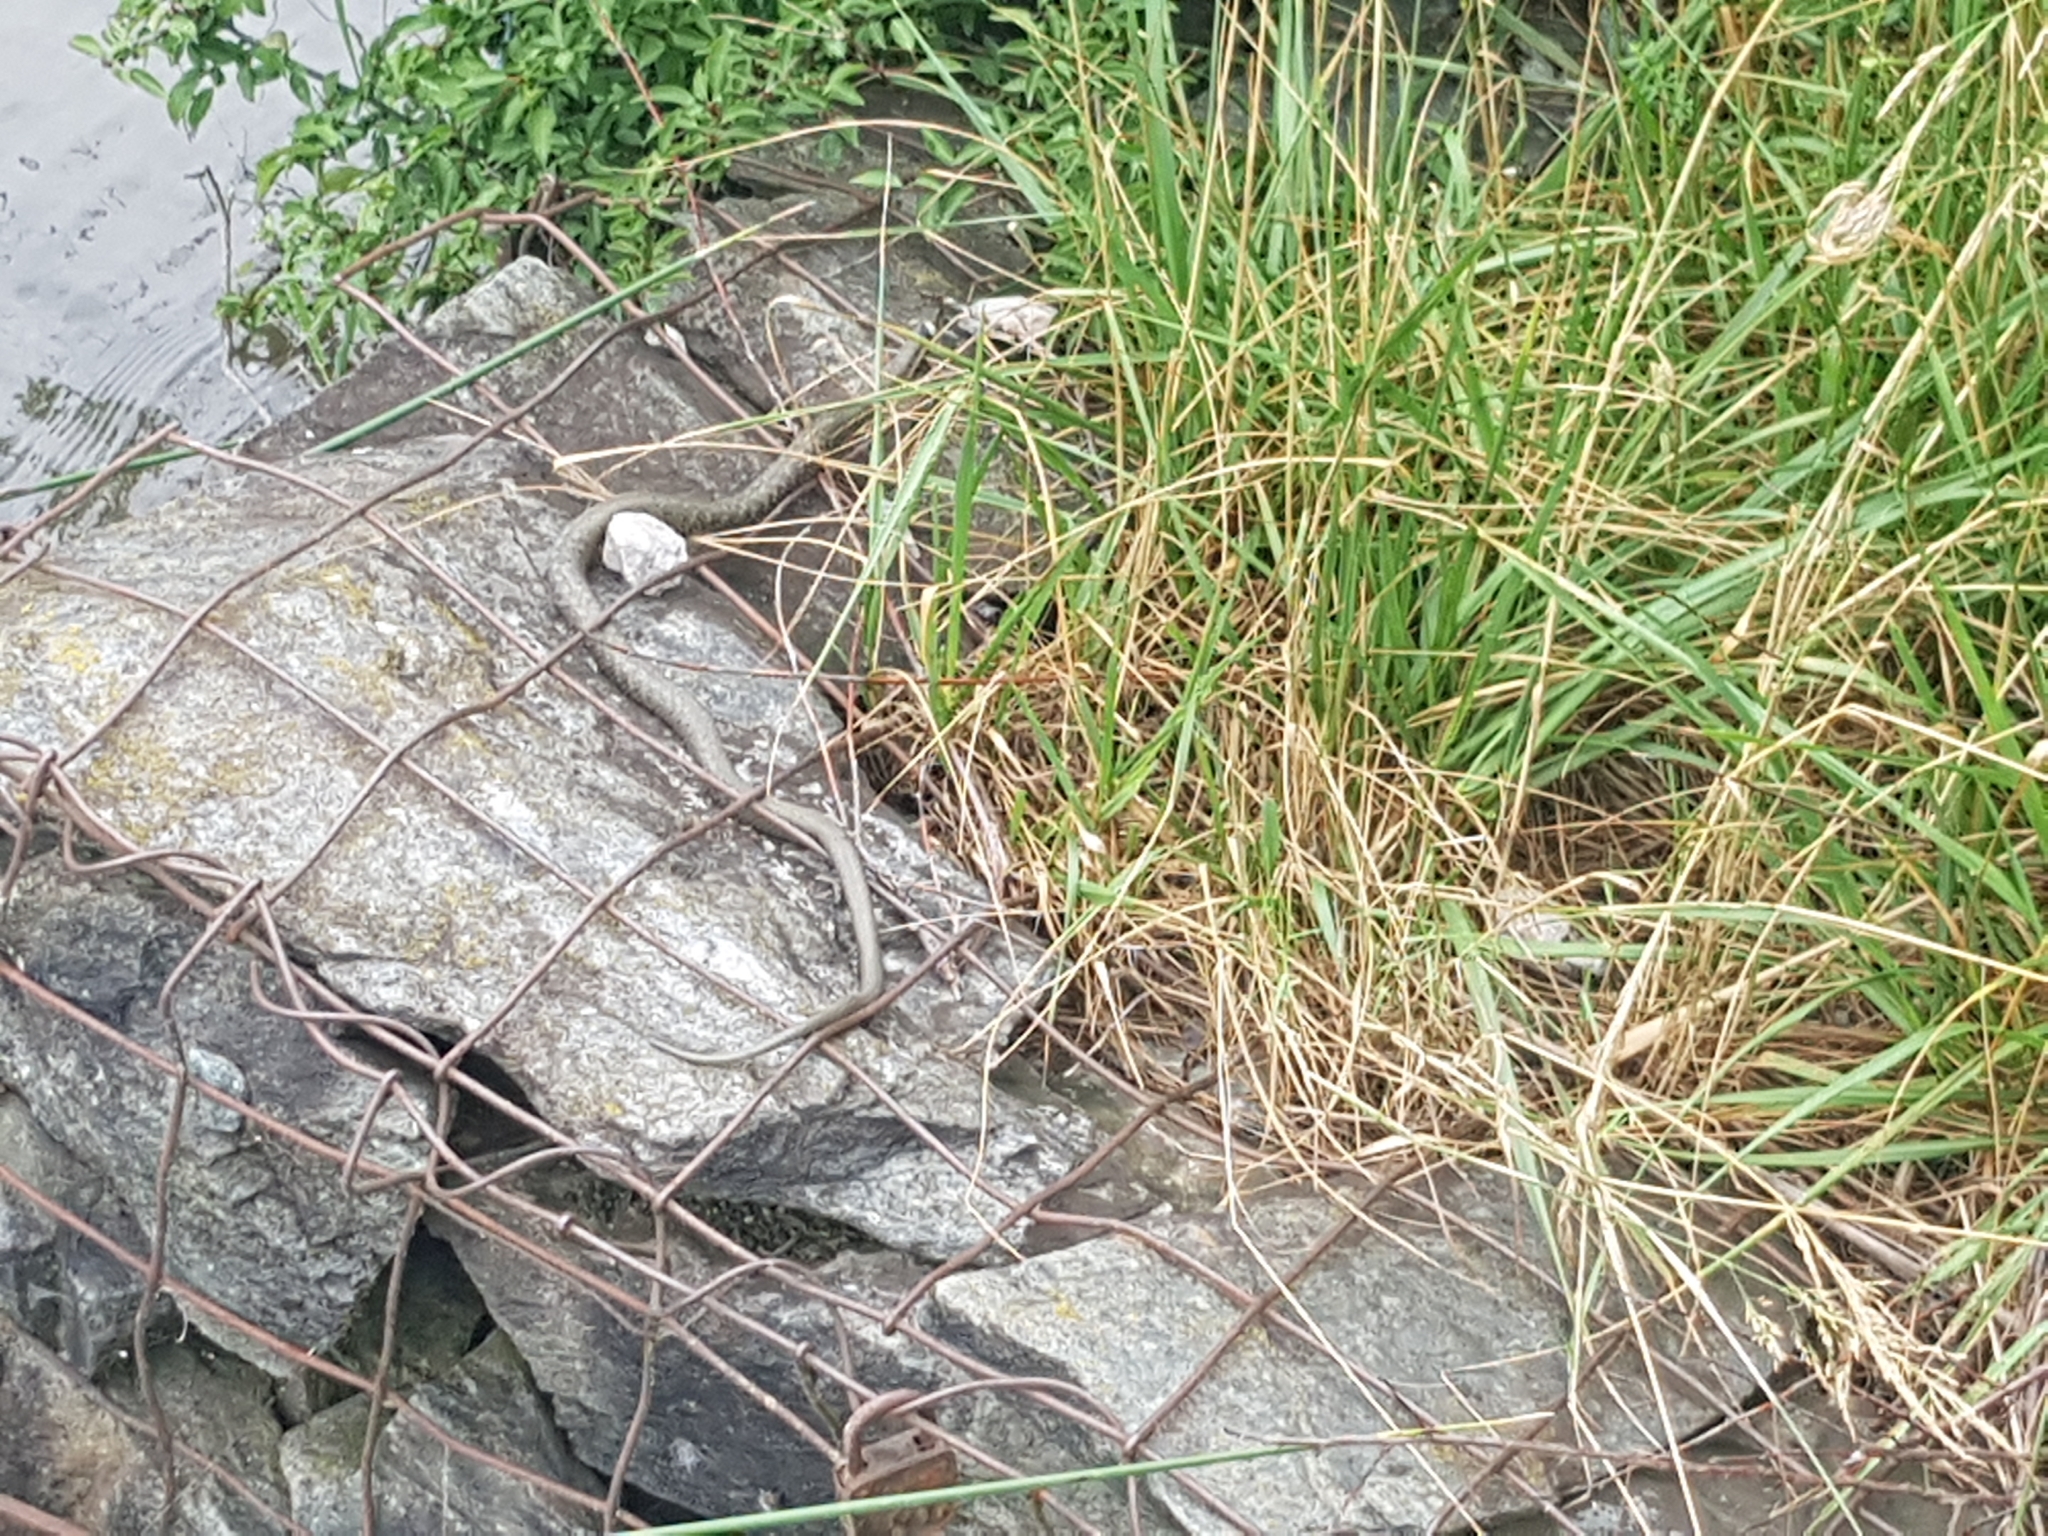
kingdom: Animalia
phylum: Chordata
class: Squamata
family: Colubridae
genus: Natrix
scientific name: Natrix natrix
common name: Grass snake
